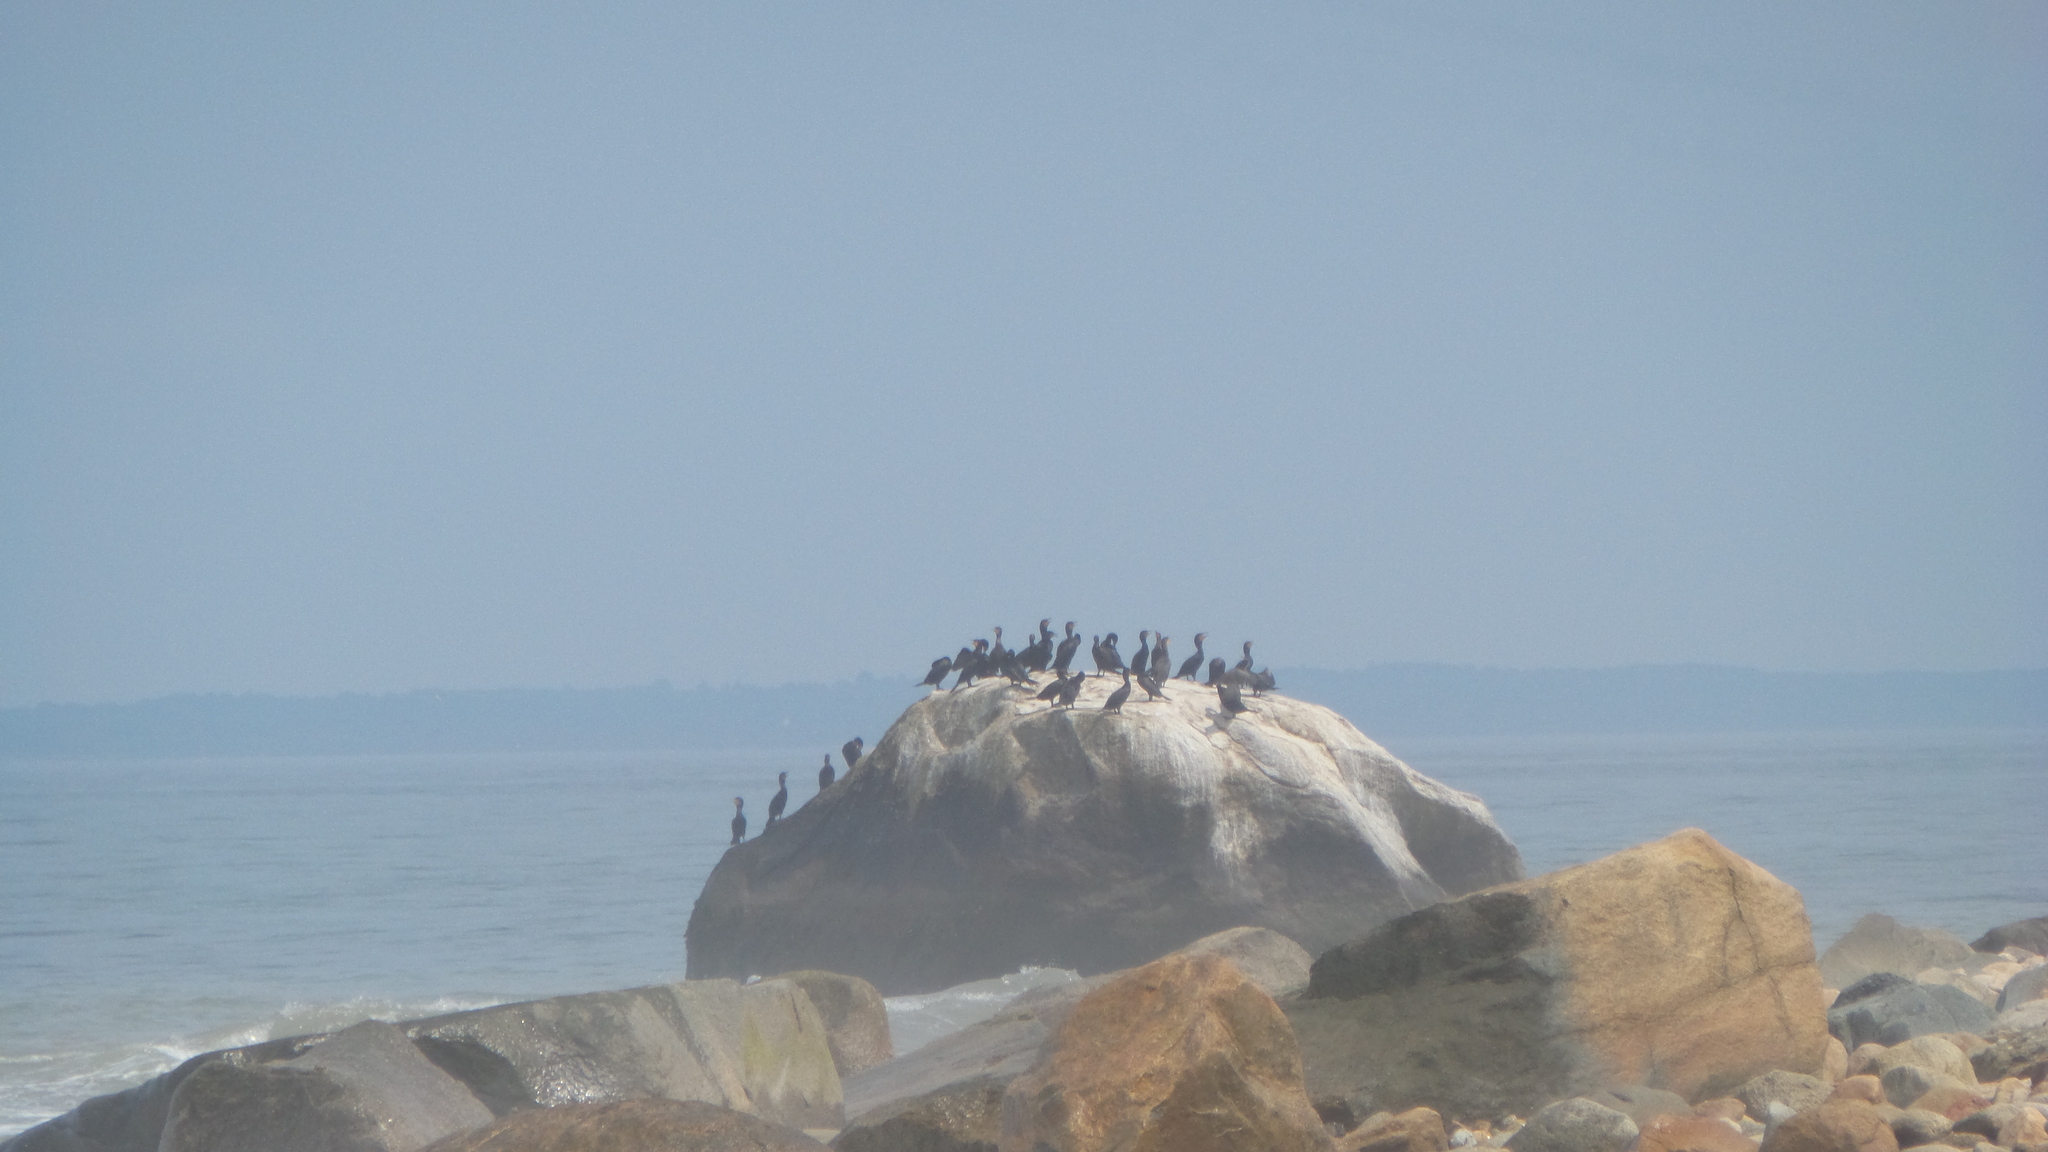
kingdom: Animalia
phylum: Chordata
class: Aves
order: Suliformes
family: Phalacrocoracidae
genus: Phalacrocorax
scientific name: Phalacrocorax auritus
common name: Double-crested cormorant
